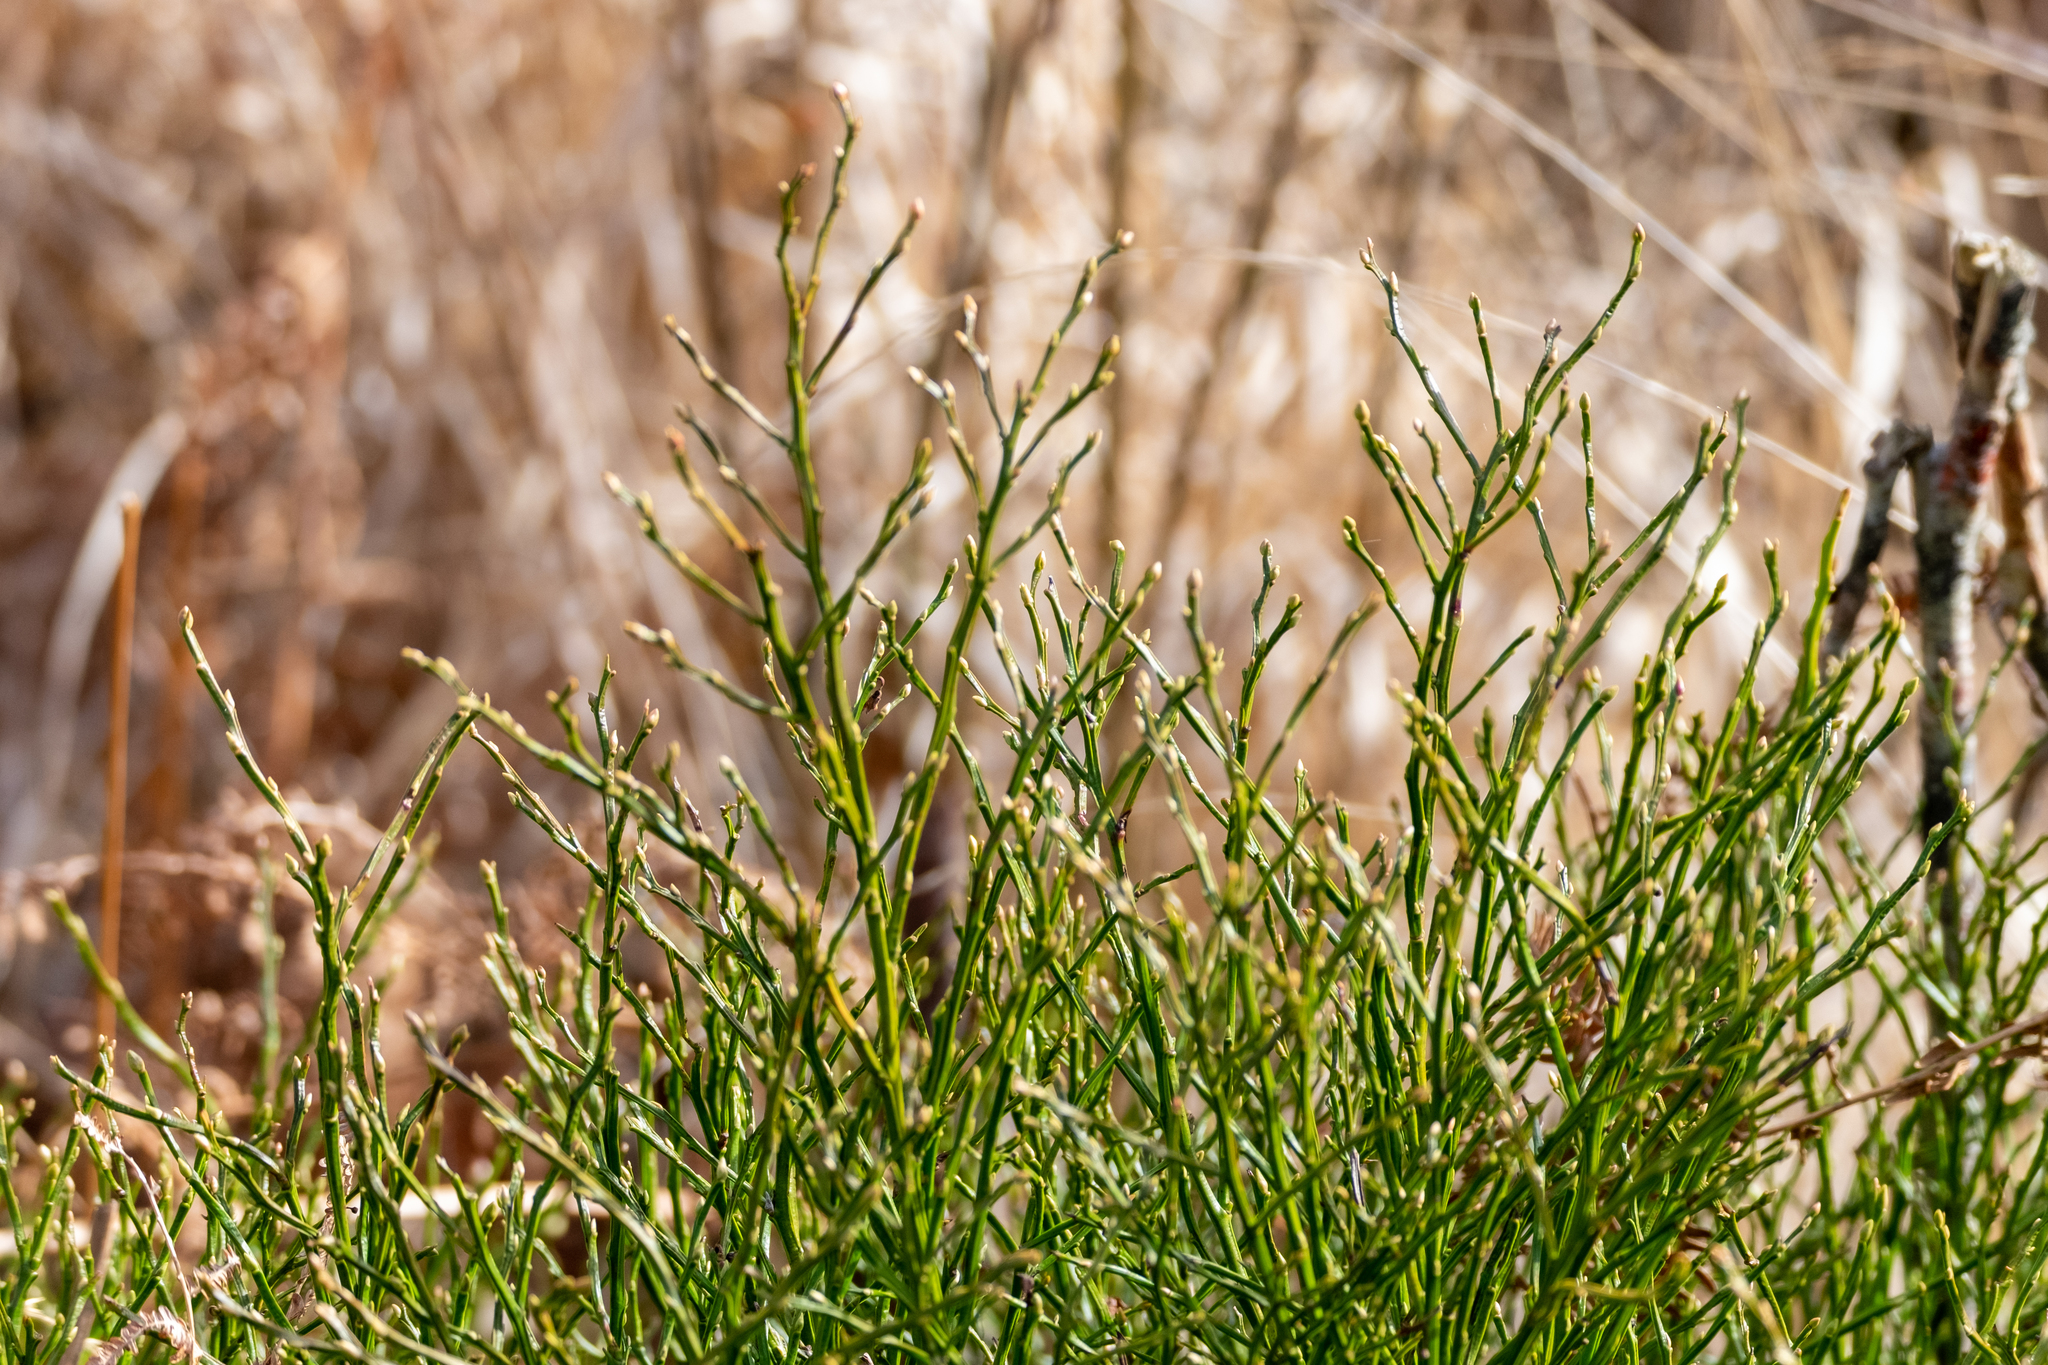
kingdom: Plantae
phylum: Tracheophyta
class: Magnoliopsida
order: Ericales
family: Ericaceae
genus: Vaccinium
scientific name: Vaccinium myrtillus
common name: Bilberry
